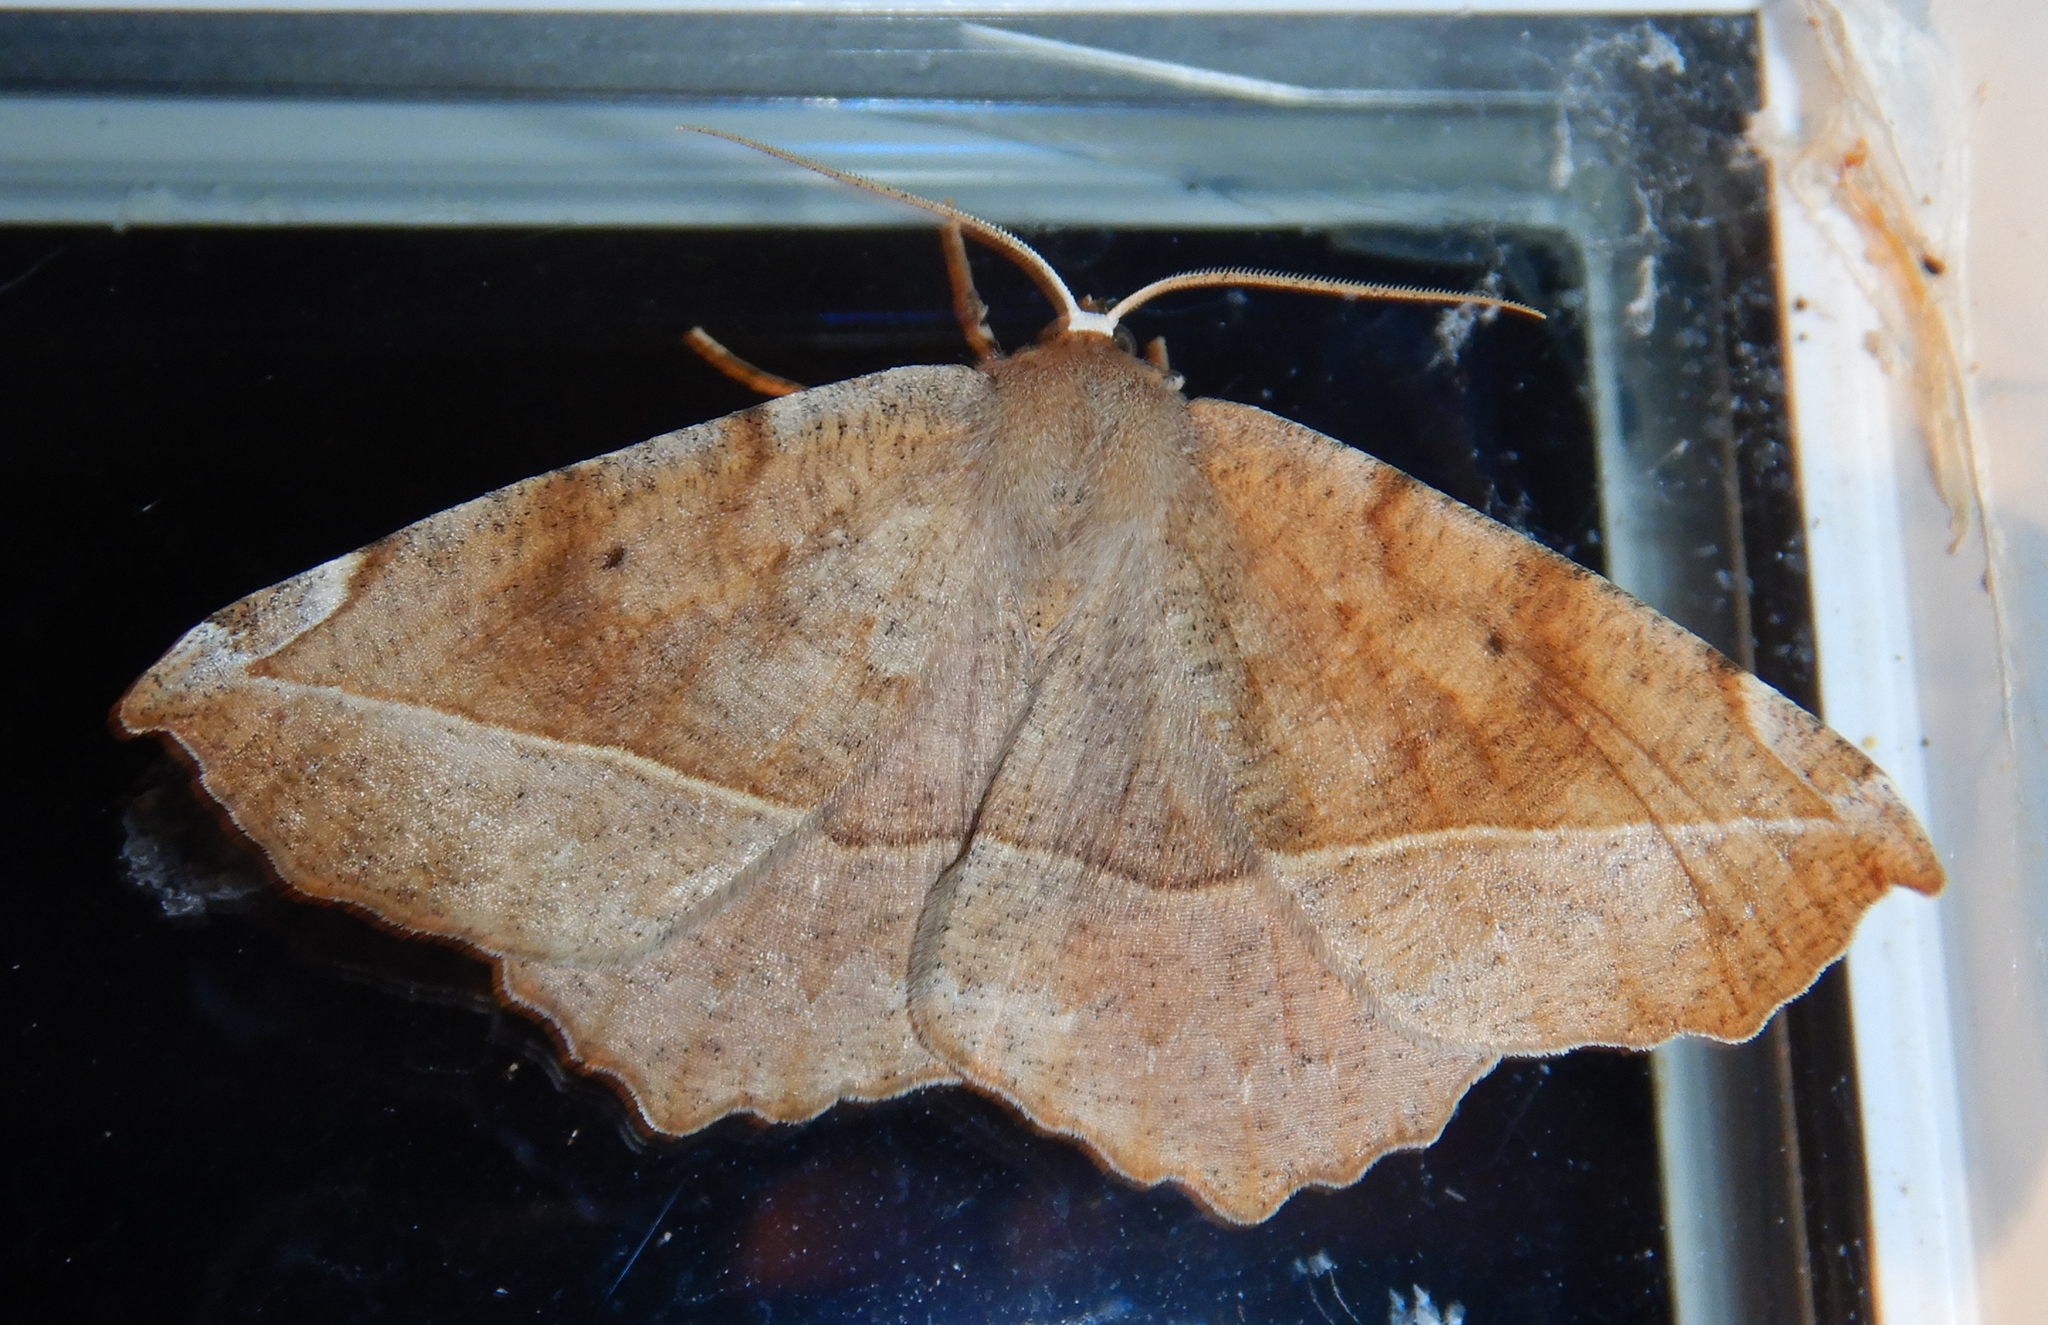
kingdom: Animalia
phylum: Arthropoda
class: Insecta
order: Lepidoptera
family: Geometridae
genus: Eutrapela
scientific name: Eutrapela clemataria
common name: Curved-toothed geometer
